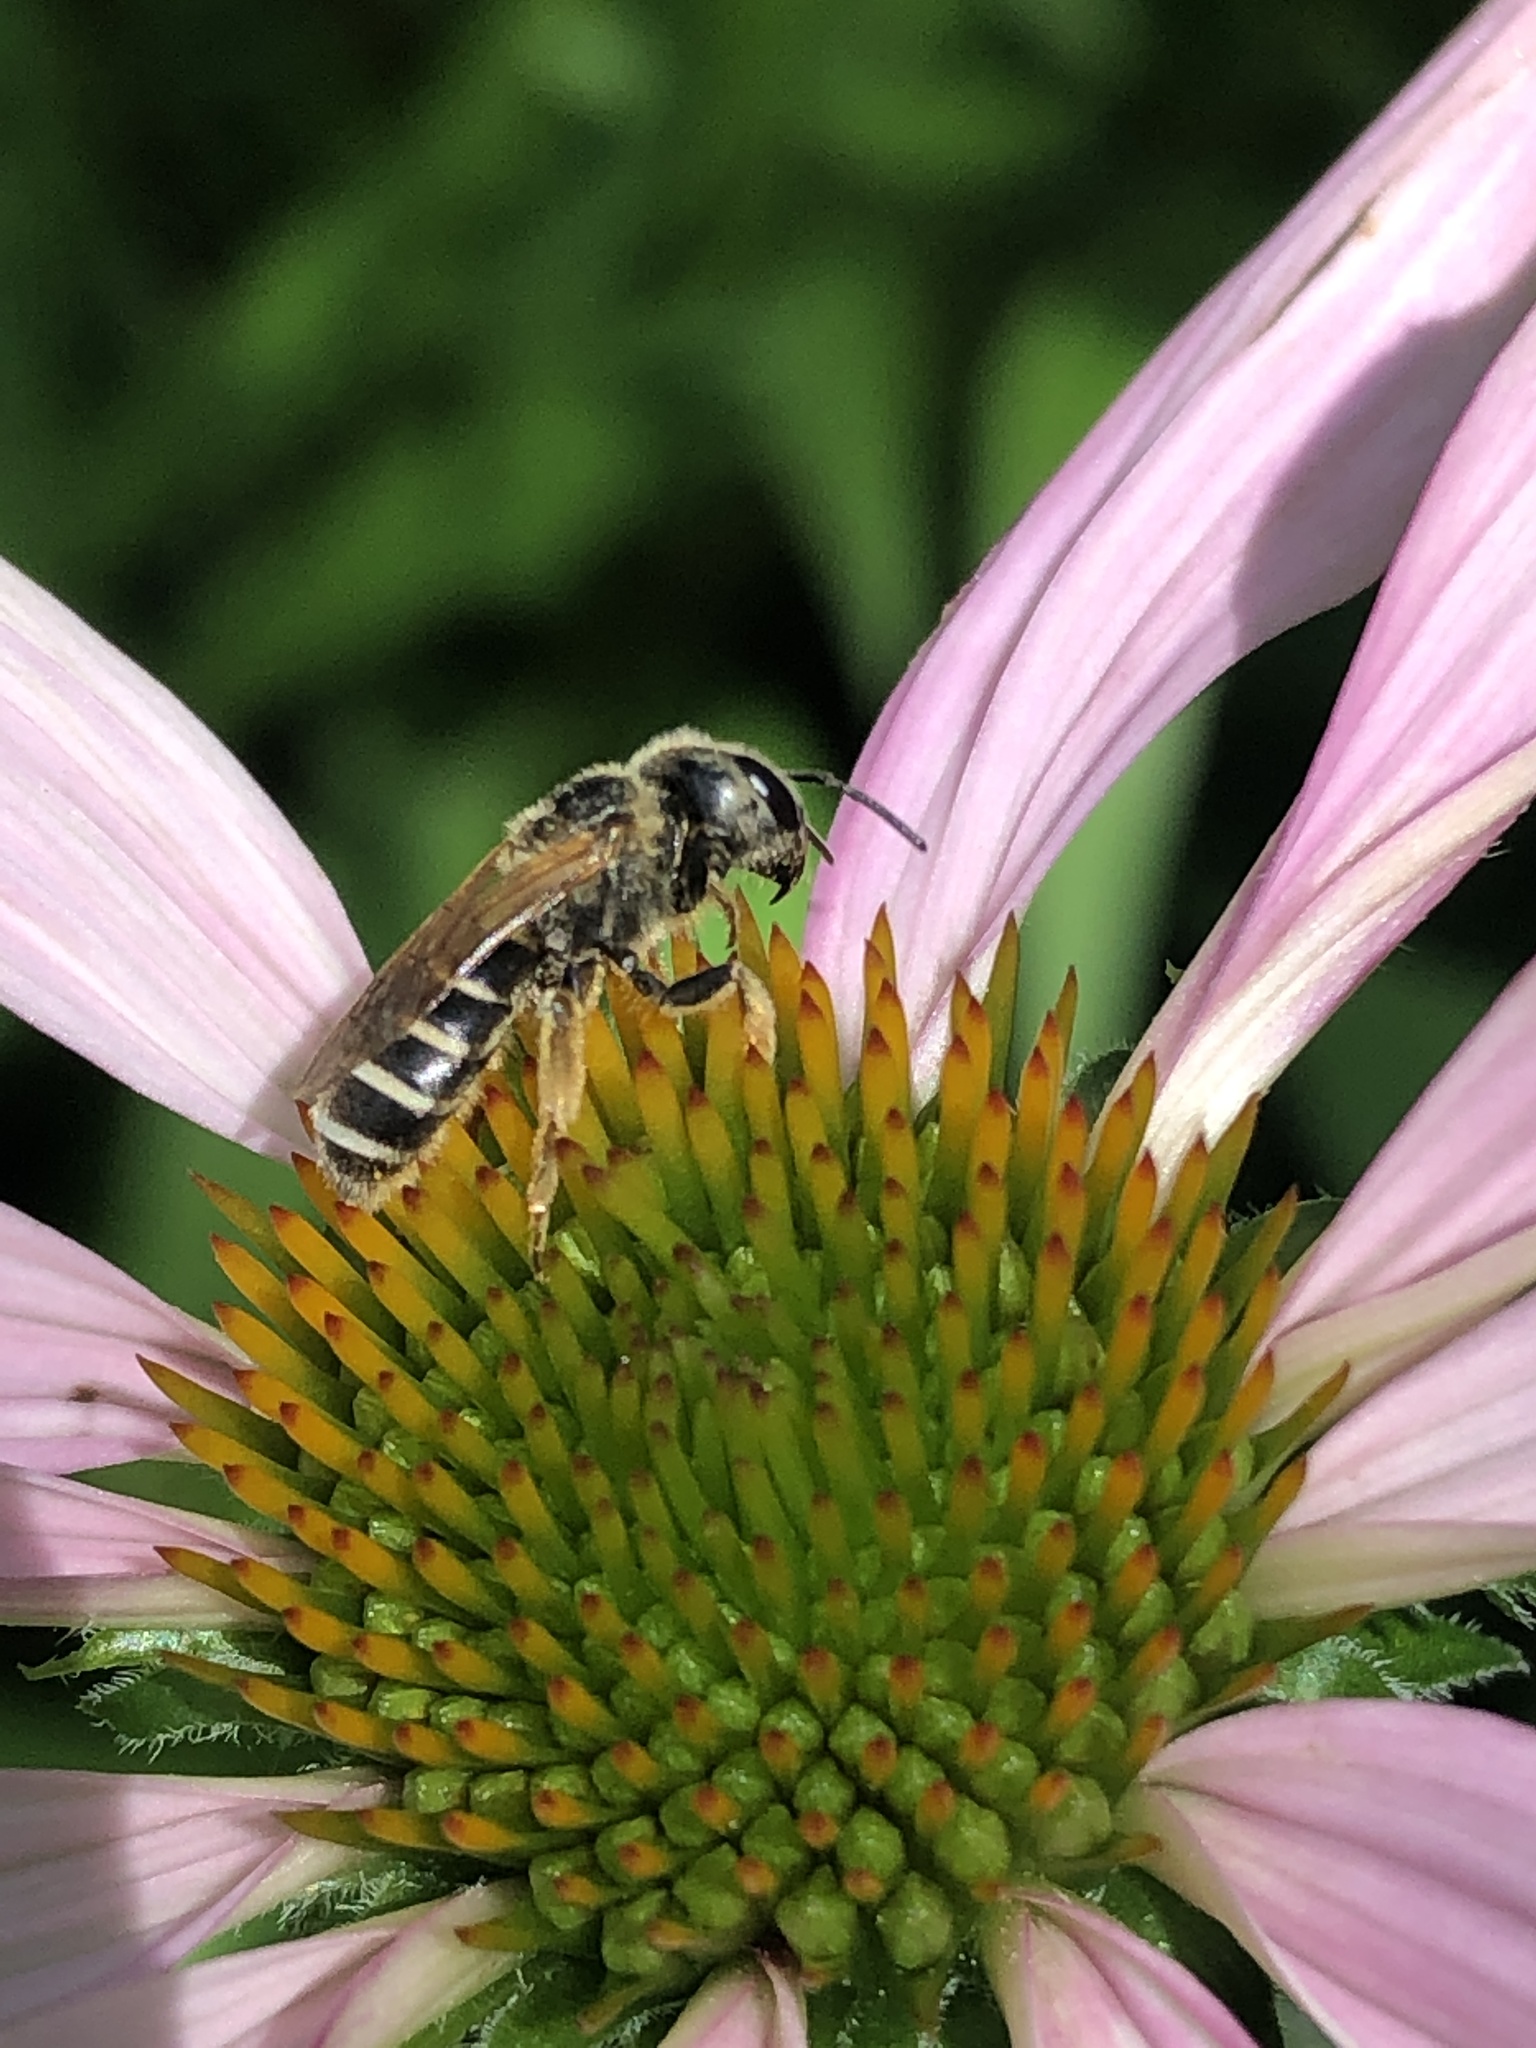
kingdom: Animalia
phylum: Arthropoda
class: Insecta
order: Hymenoptera
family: Halictidae
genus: Halictus
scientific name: Halictus ligatus
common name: Ligated furrow bee
